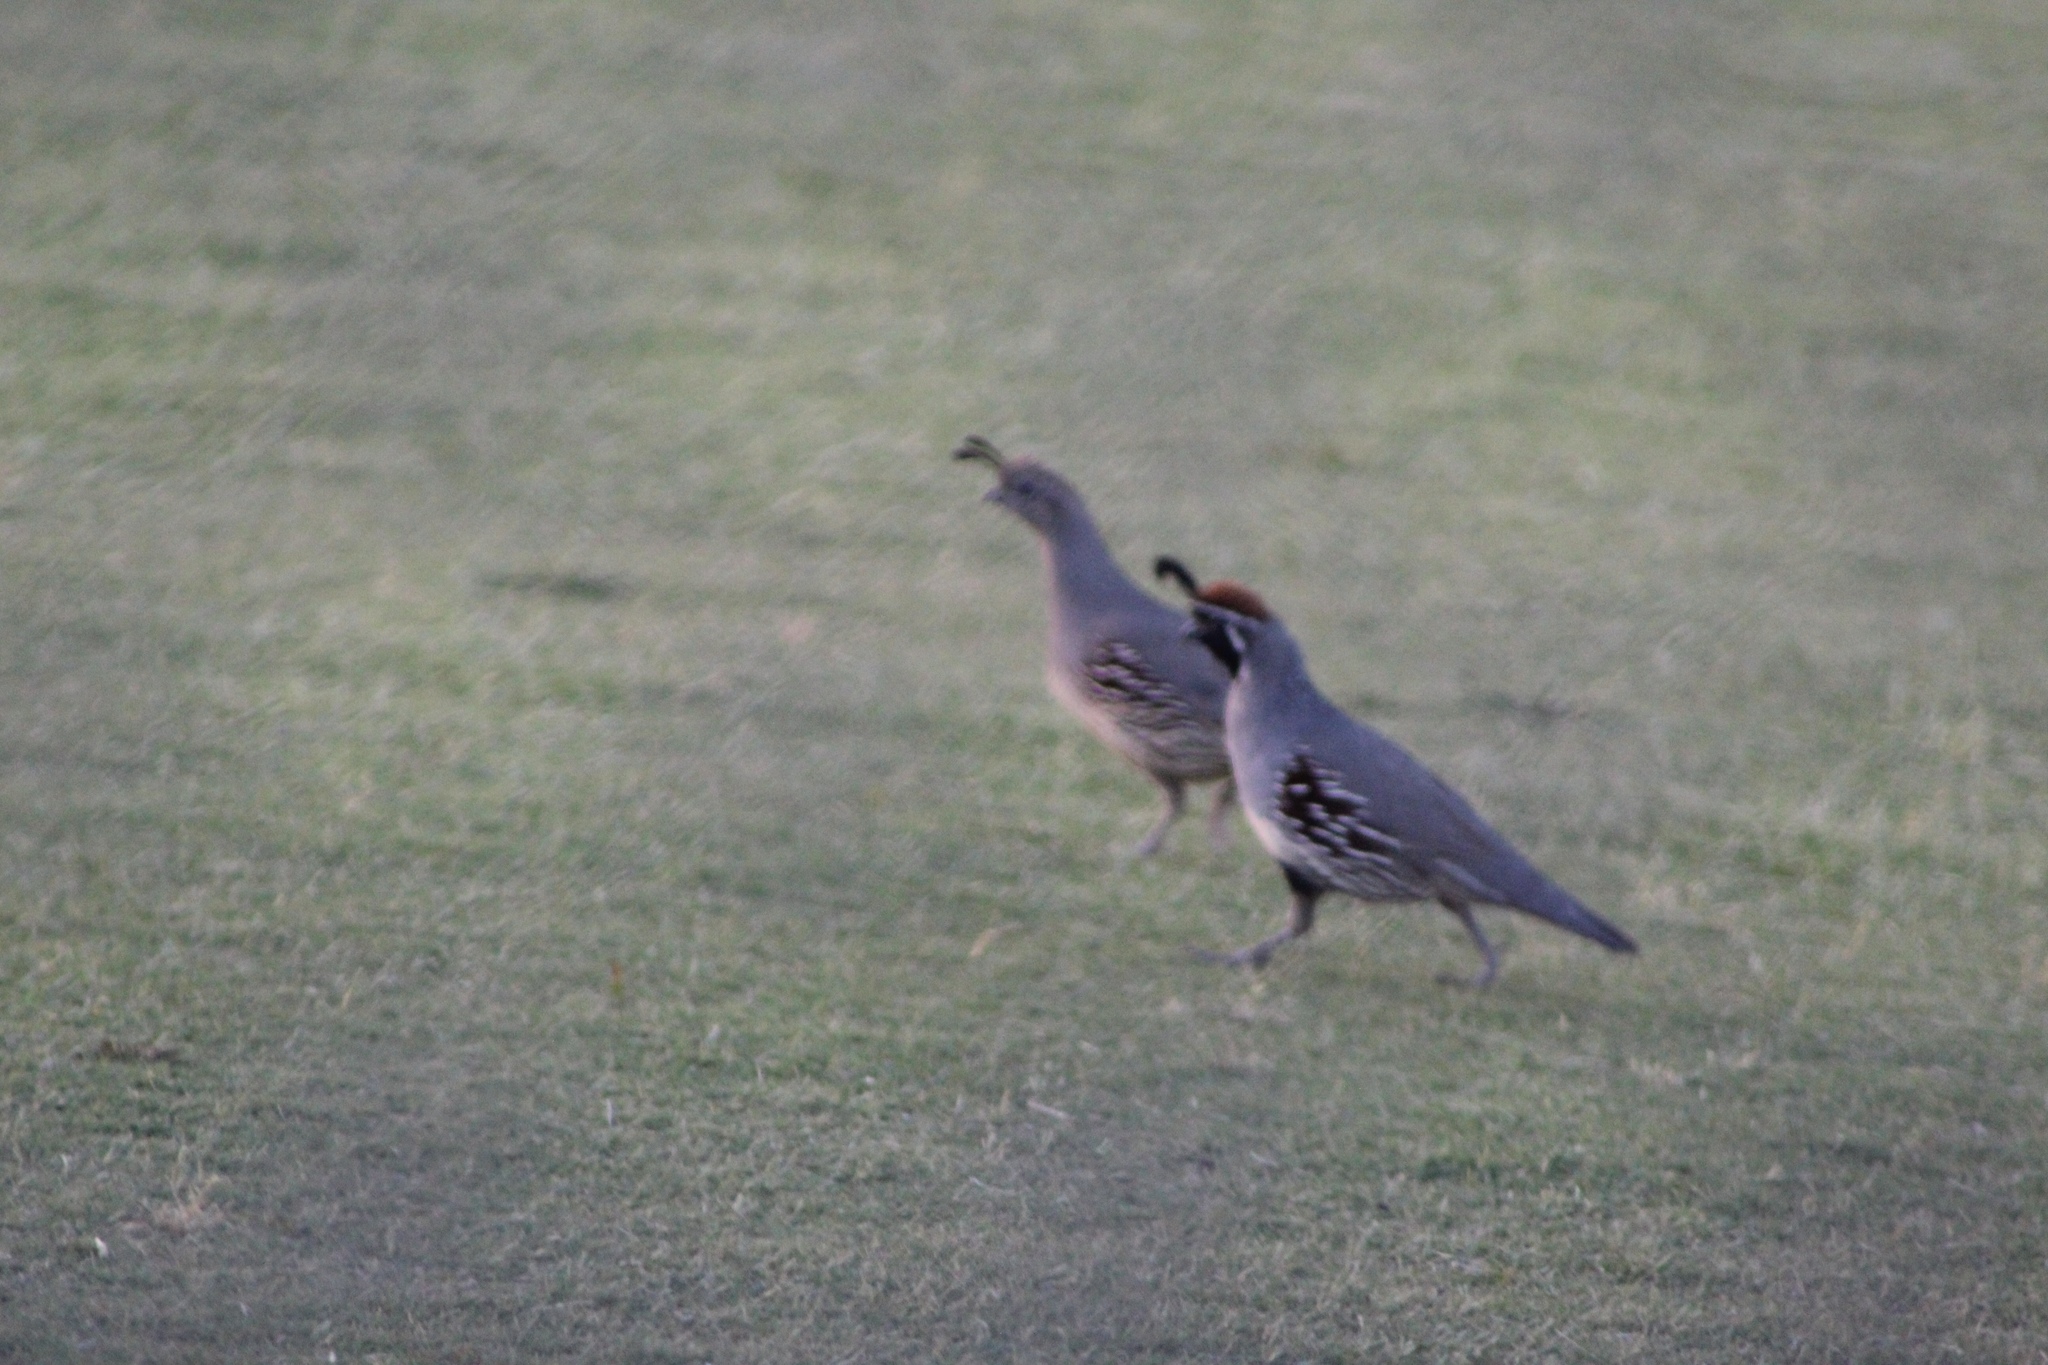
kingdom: Animalia
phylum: Chordata
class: Aves
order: Galliformes
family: Odontophoridae
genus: Callipepla
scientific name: Callipepla gambelii
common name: Gambel's quail
